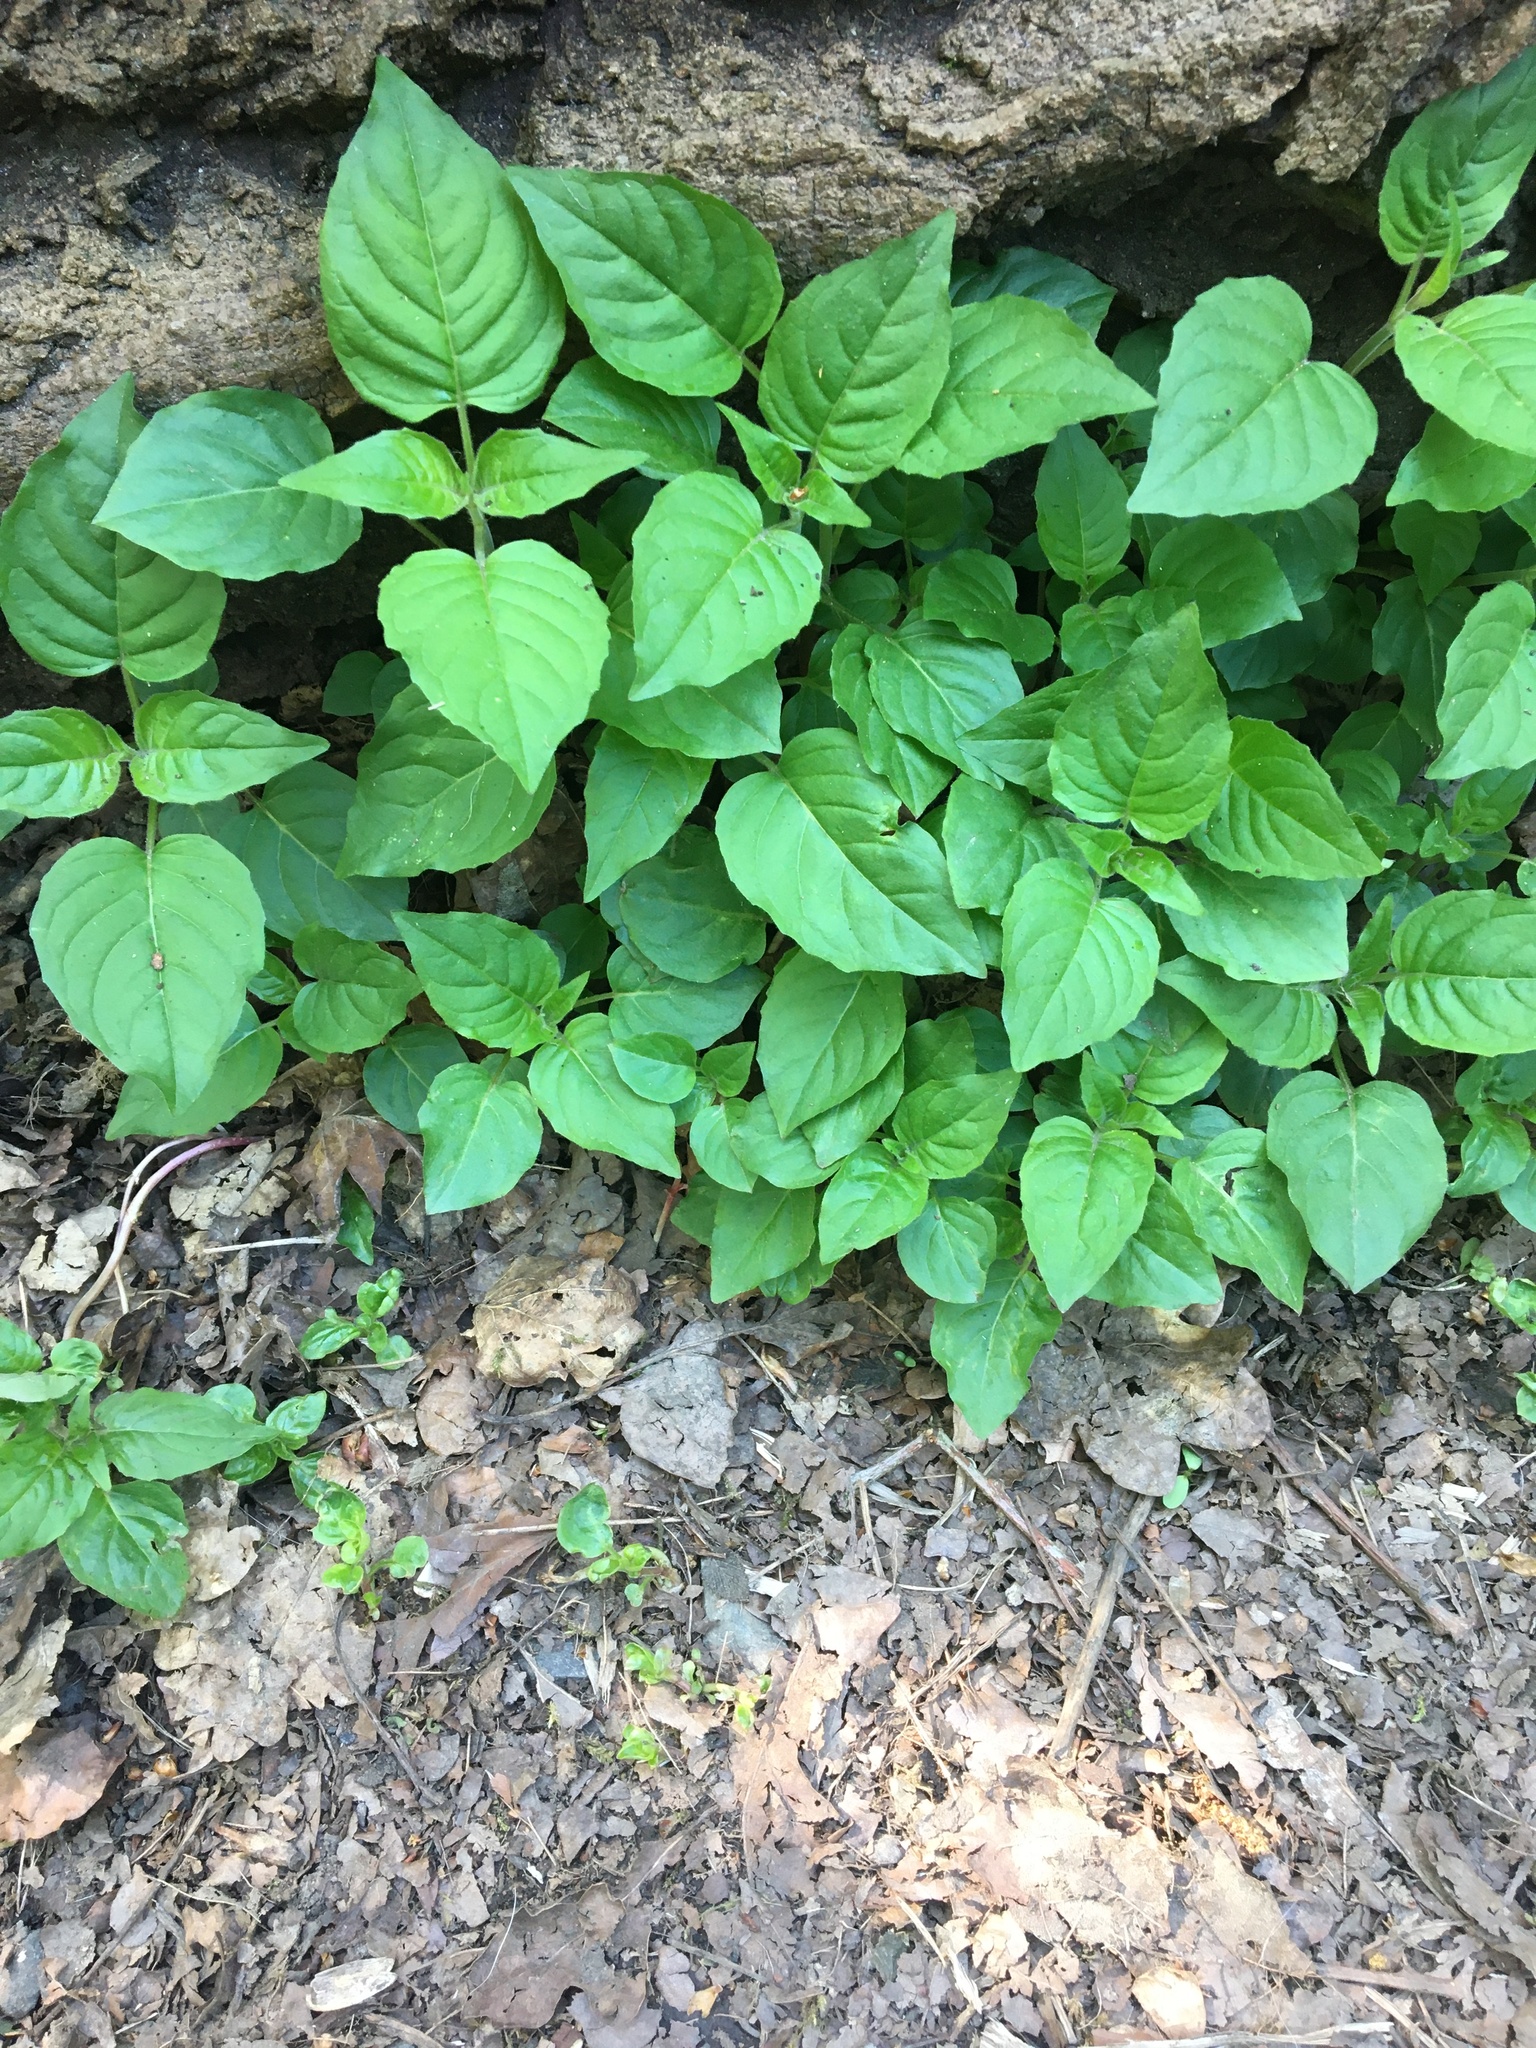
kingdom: Plantae
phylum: Tracheophyta
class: Magnoliopsida
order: Myrtales
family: Onagraceae
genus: Circaea
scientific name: Circaea lutetiana
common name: Enchanter's-nightshade
